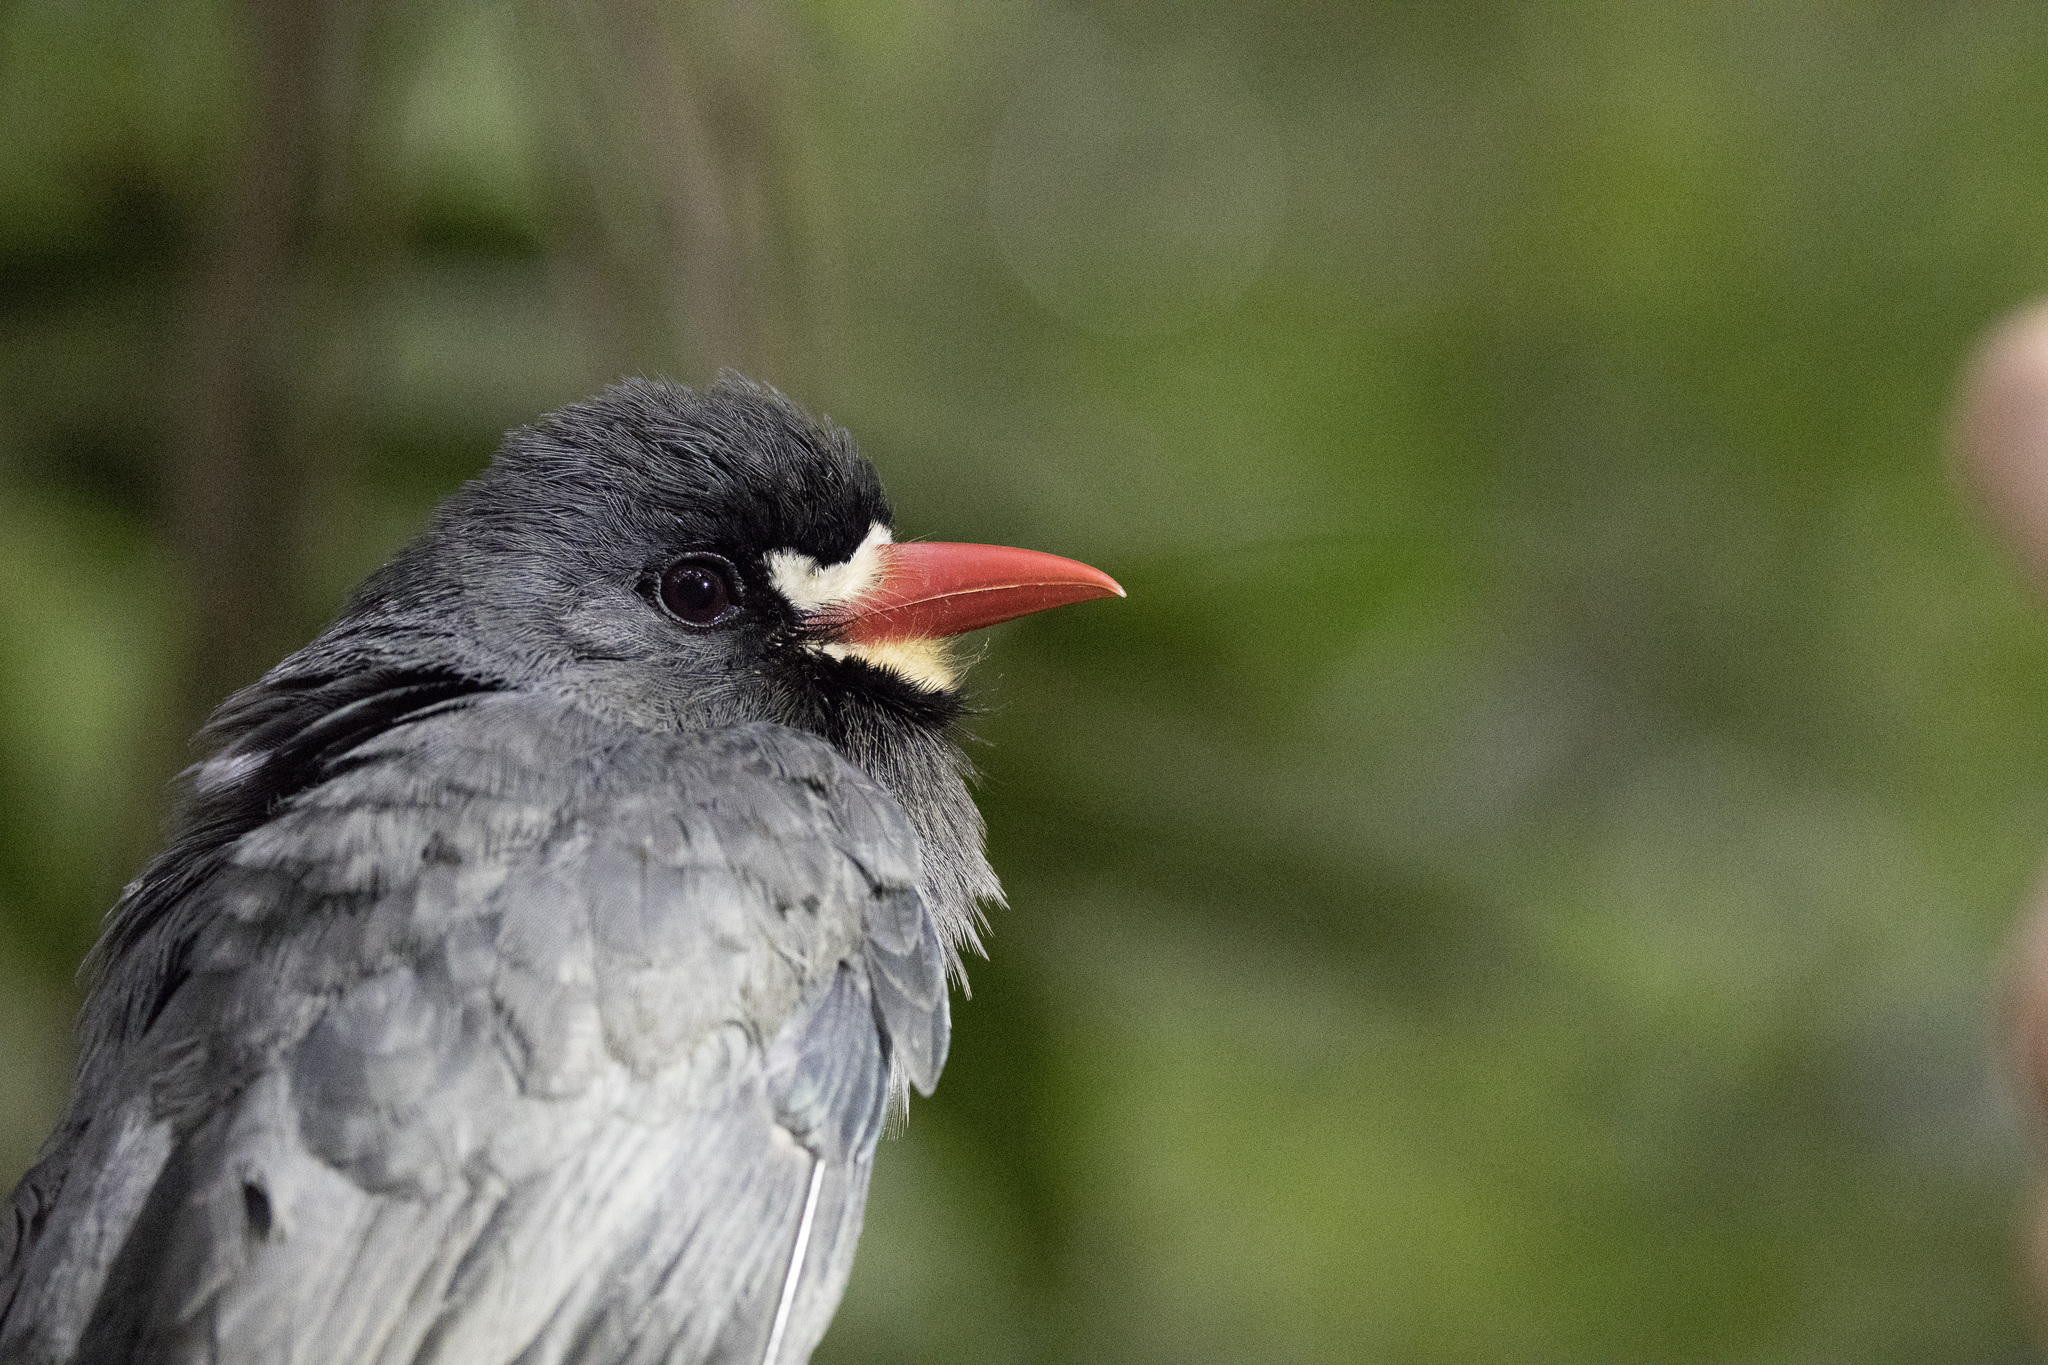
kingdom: Animalia
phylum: Chordata
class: Aves
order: Piciformes
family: Bucconidae
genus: Monasa
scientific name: Monasa morphoeus
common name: White-fronted nunbird
